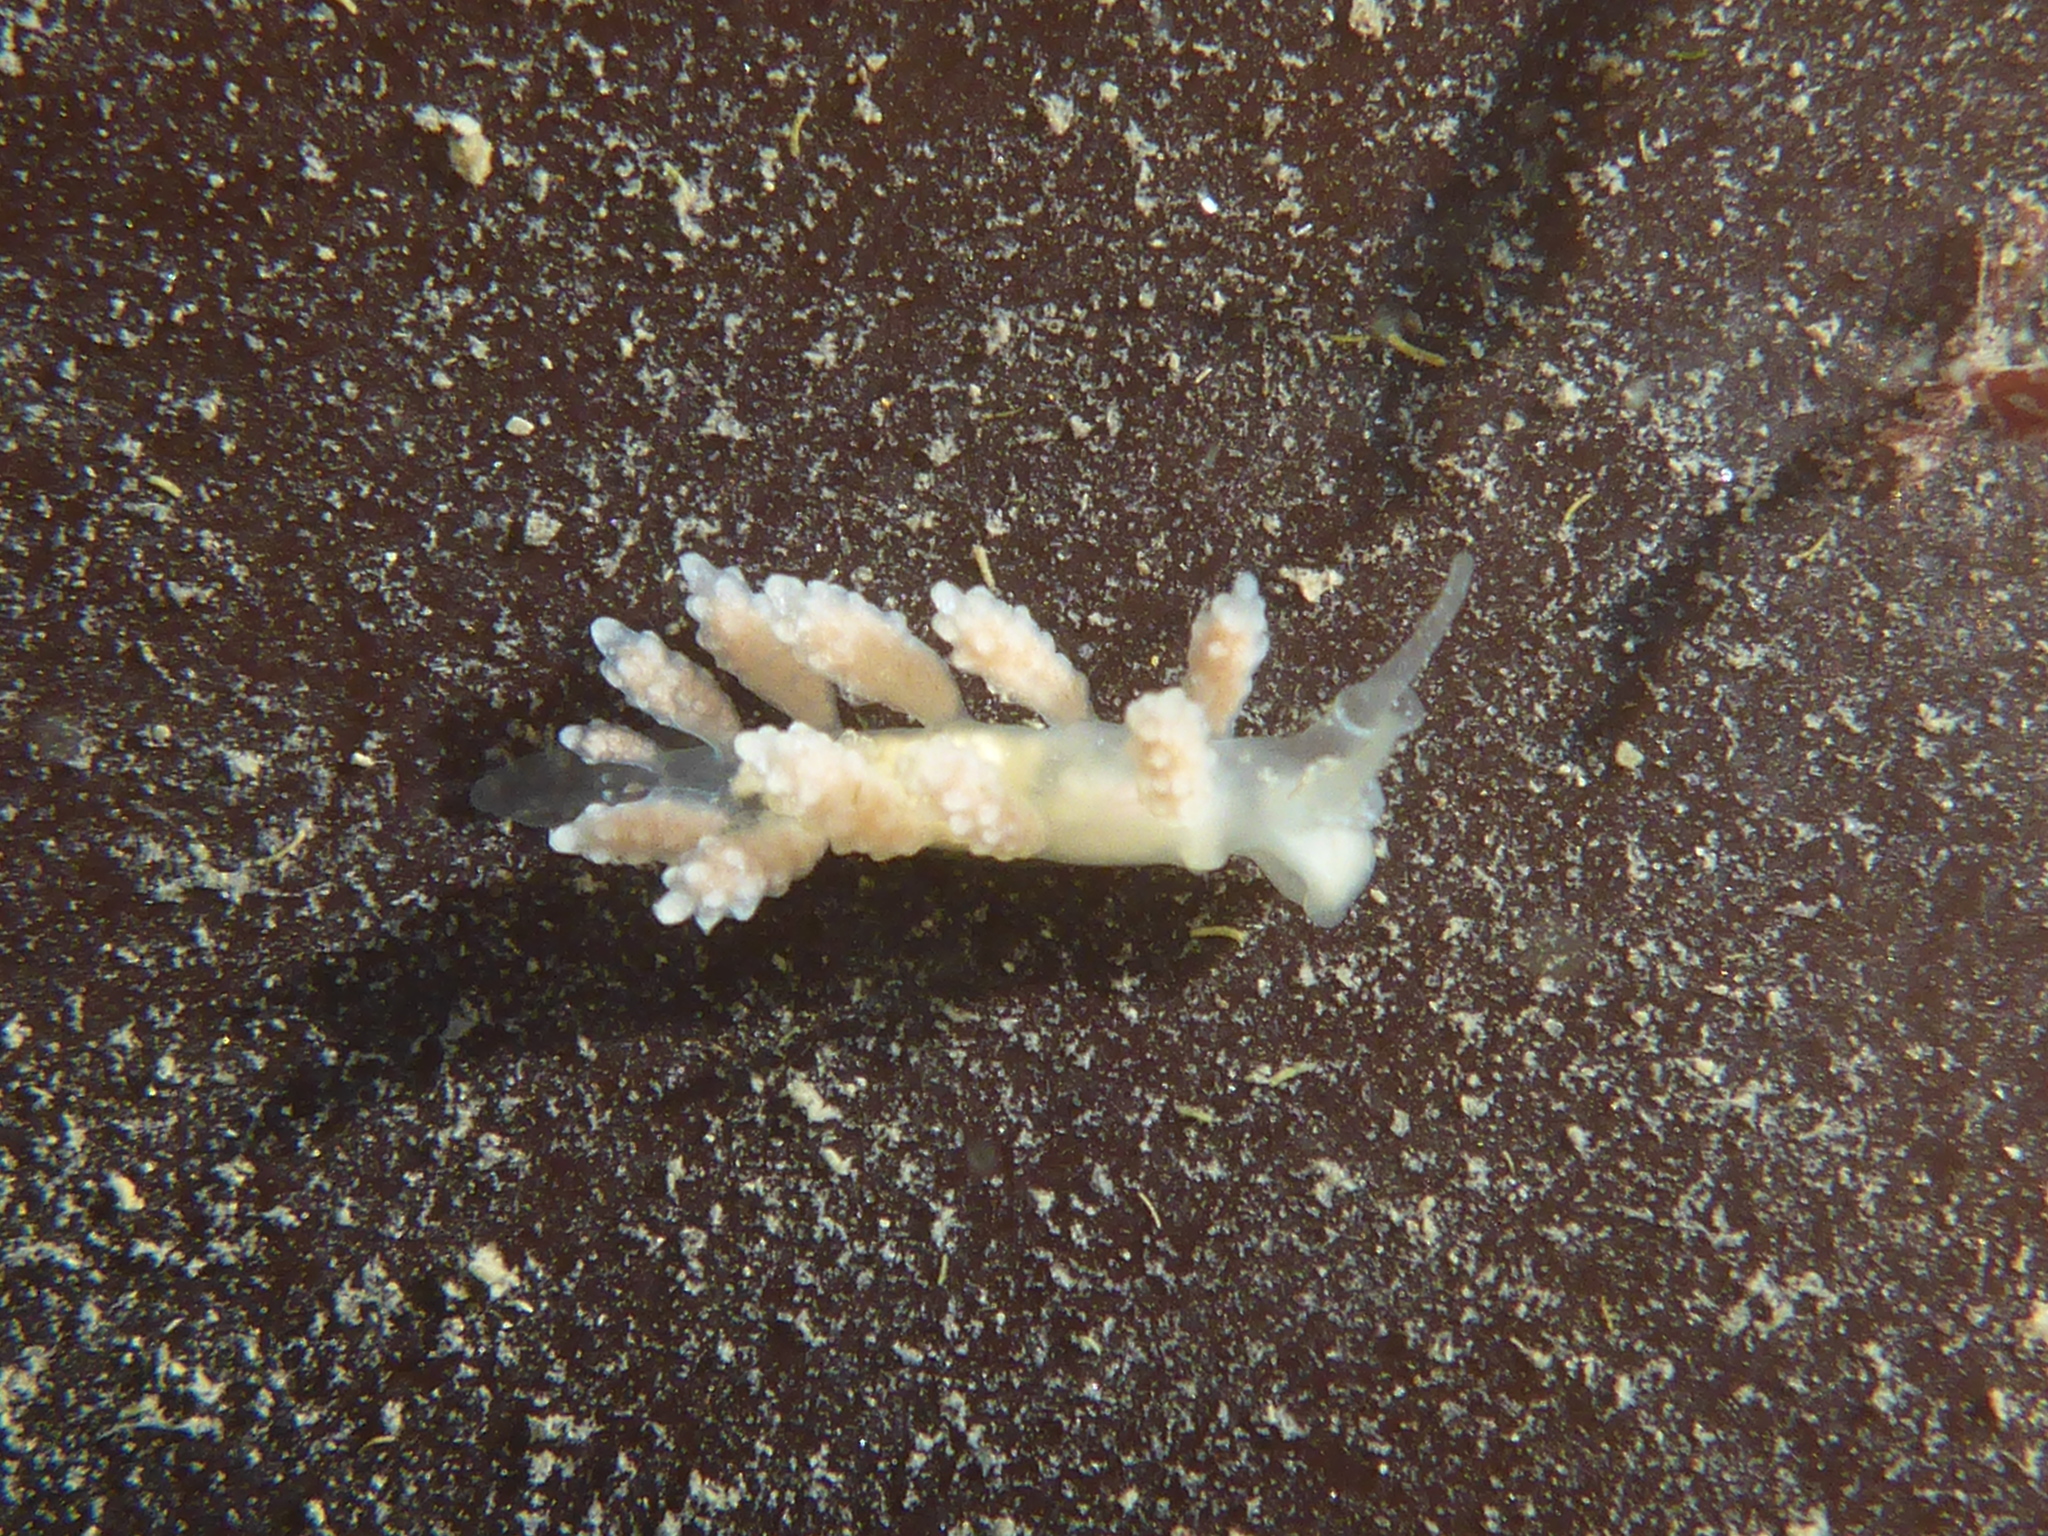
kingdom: Animalia
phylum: Mollusca
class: Gastropoda
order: Nudibranchia
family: Dotidae
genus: Doto
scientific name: Doto amyra
